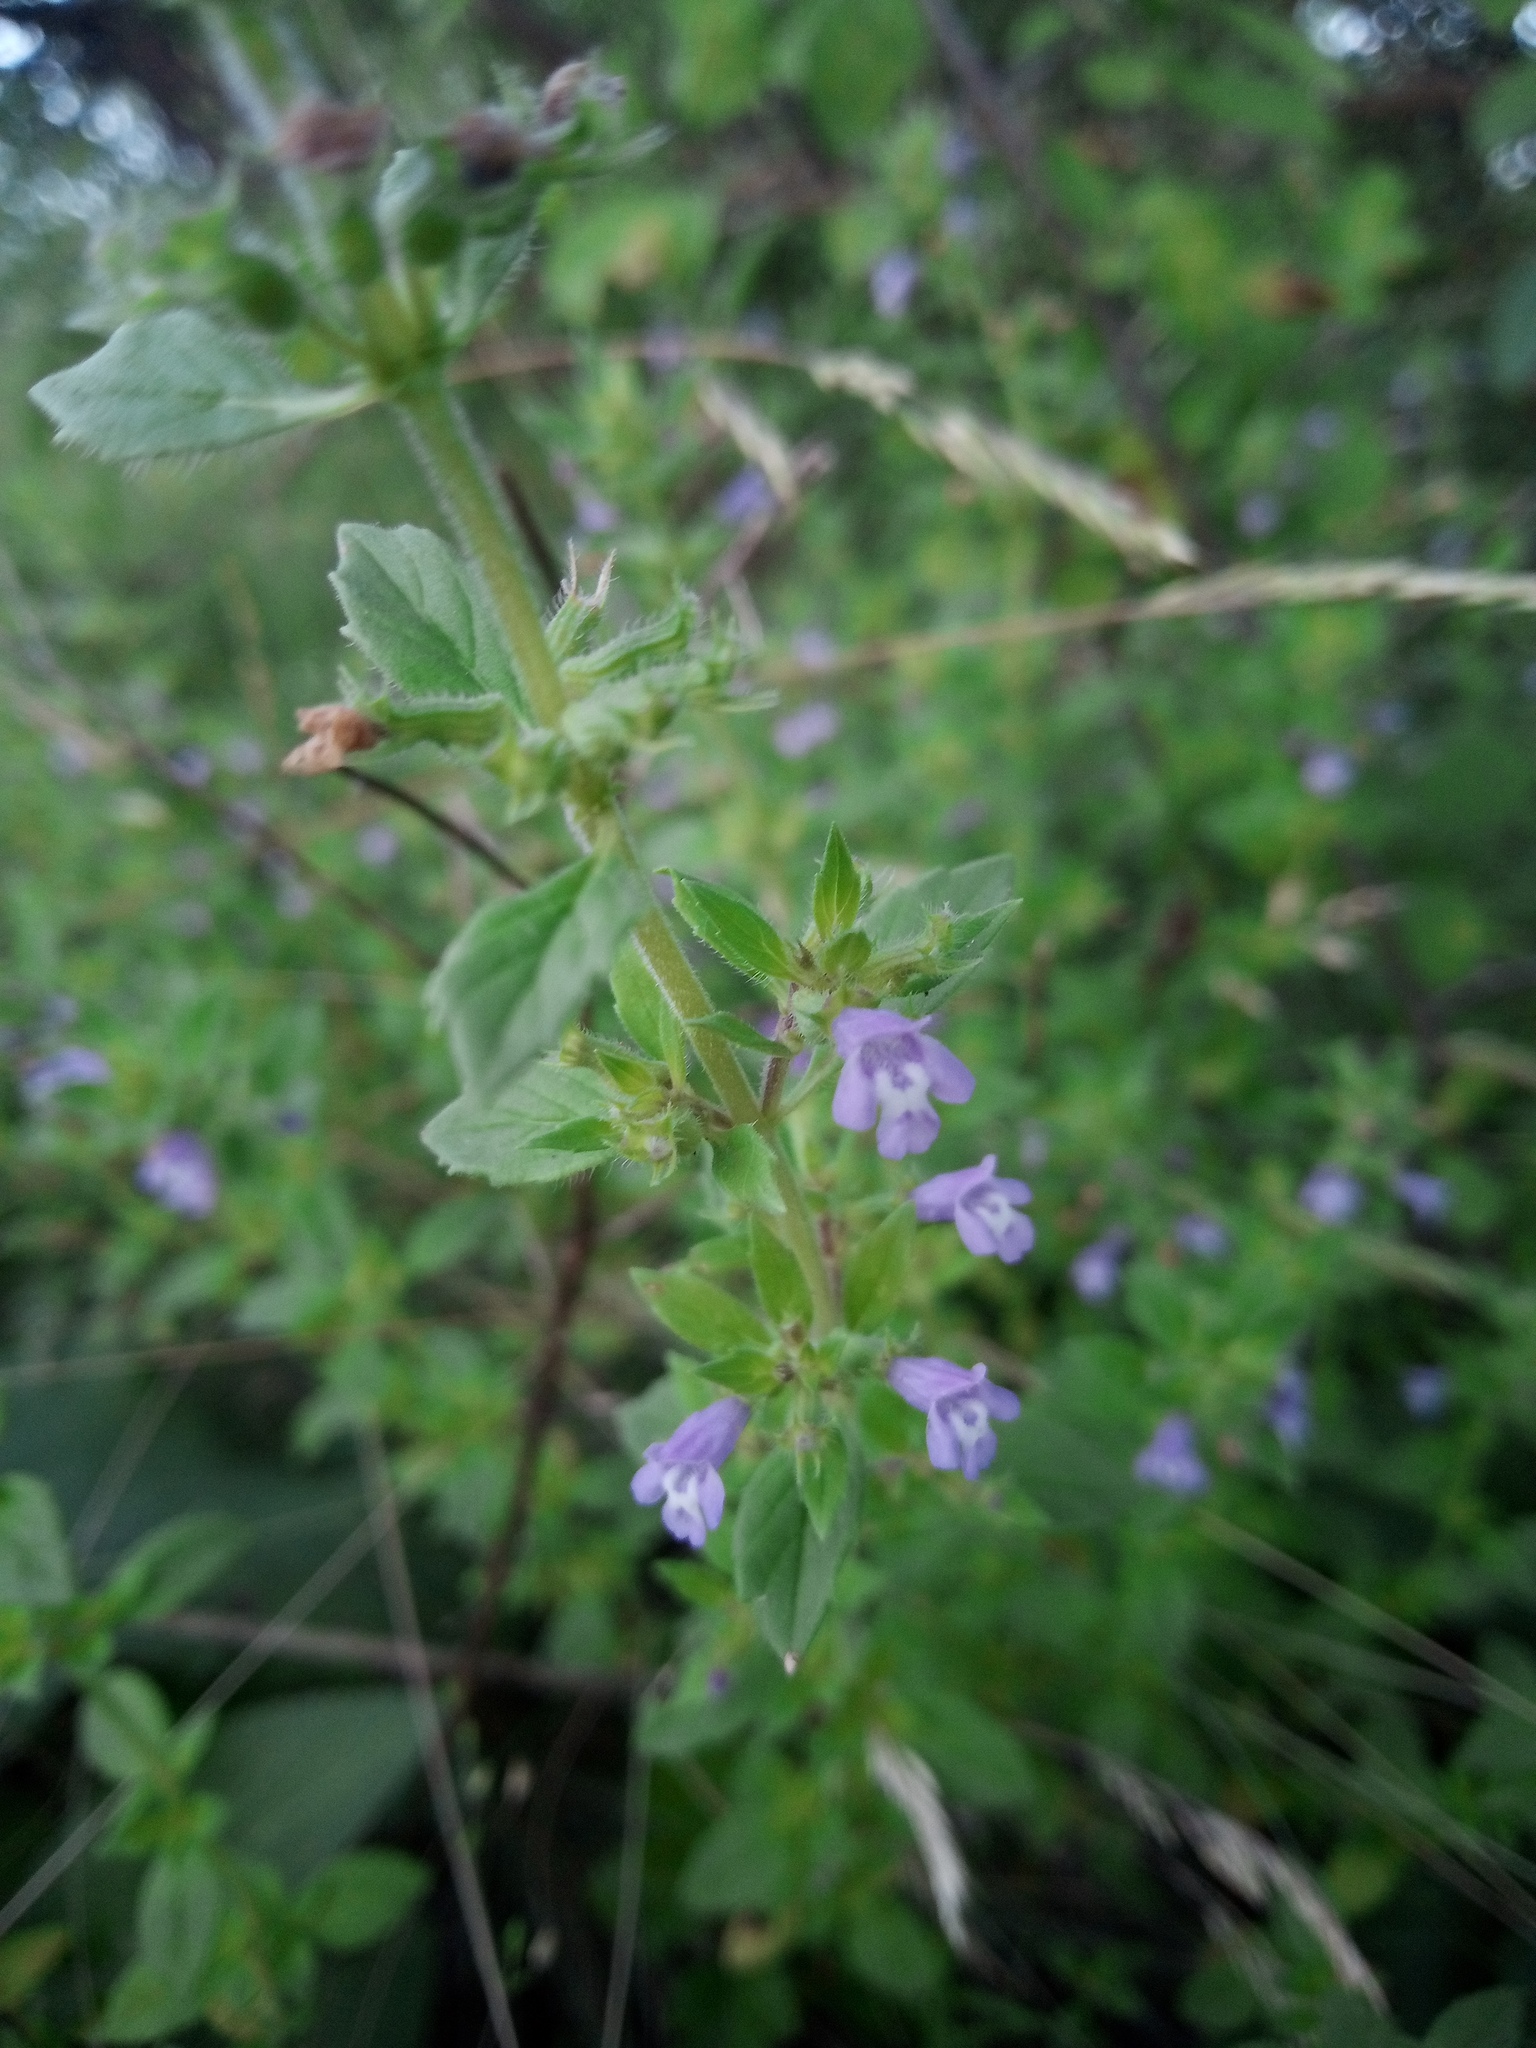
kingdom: Plantae
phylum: Tracheophyta
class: Magnoliopsida
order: Lamiales
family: Lamiaceae
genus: Clinopodium
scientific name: Clinopodium acinos
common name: Basil thyme
